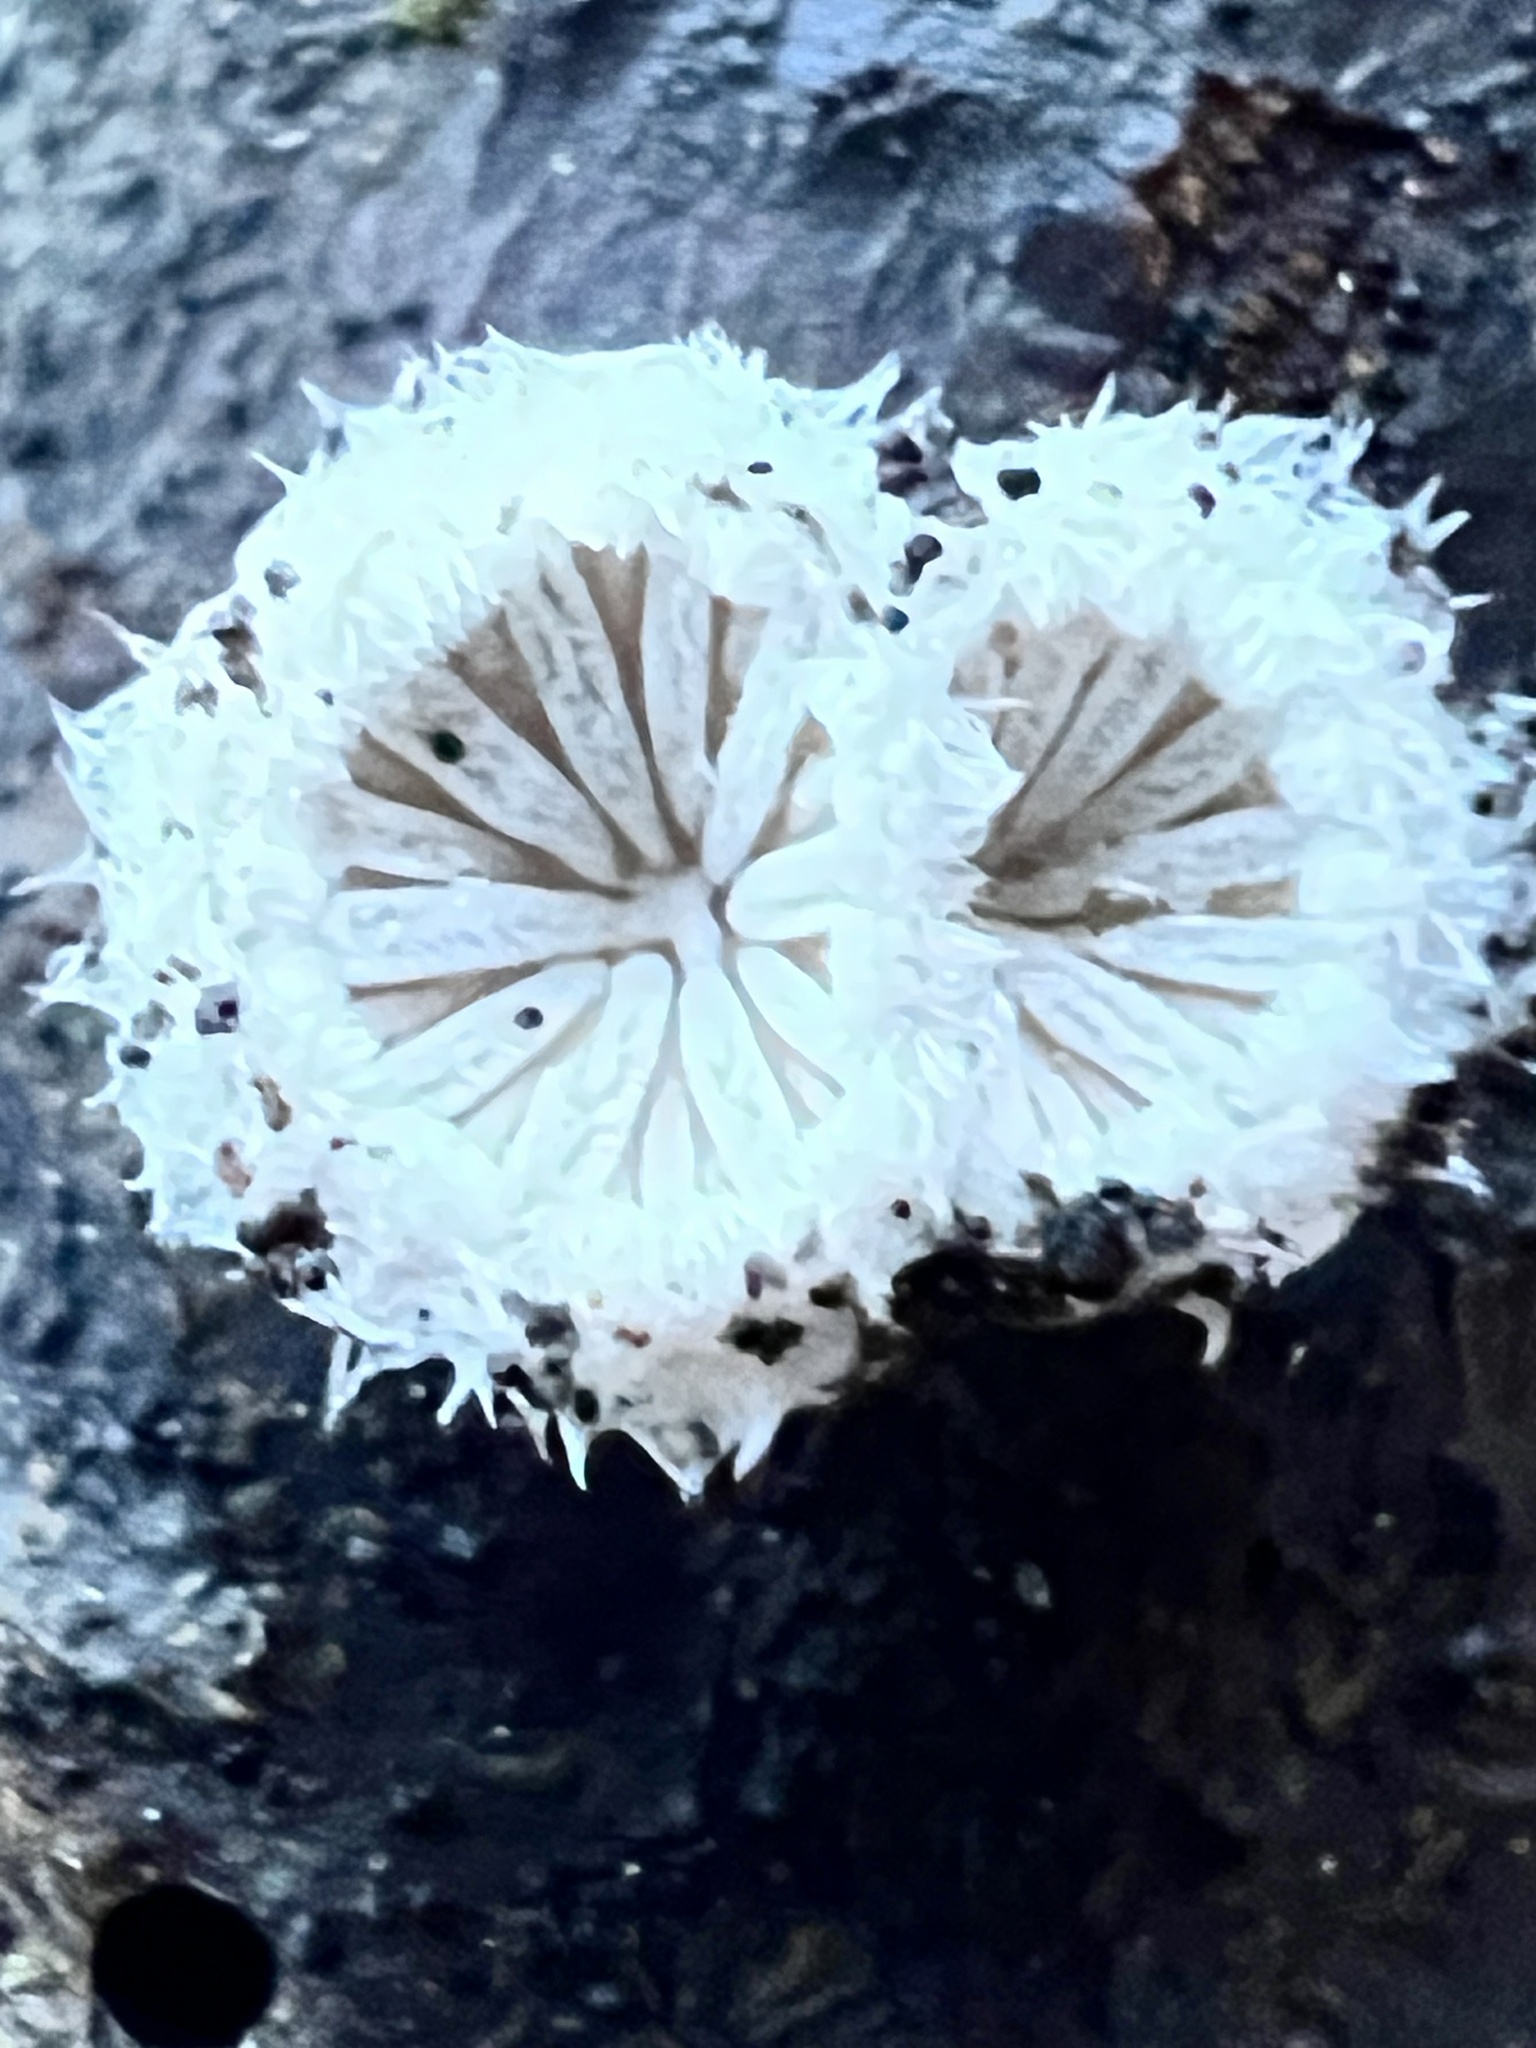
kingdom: Fungi
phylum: Basidiomycota
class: Agaricomycetes
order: Agaricales
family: Schizophyllaceae
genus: Schizophyllum
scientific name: Schizophyllum commune
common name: Common porecrust
